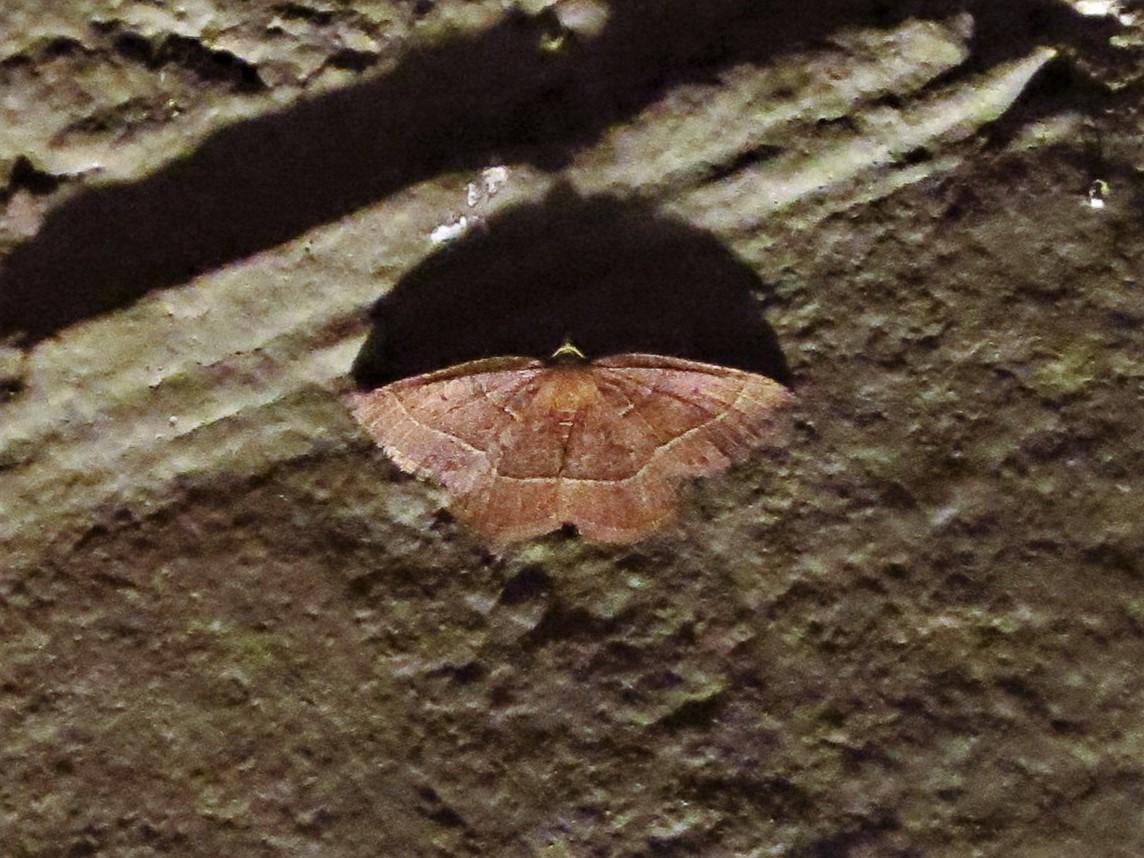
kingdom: Animalia
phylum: Arthropoda
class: Insecta
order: Lepidoptera
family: Geometridae
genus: Episemasia
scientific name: Episemasia cervinaria
